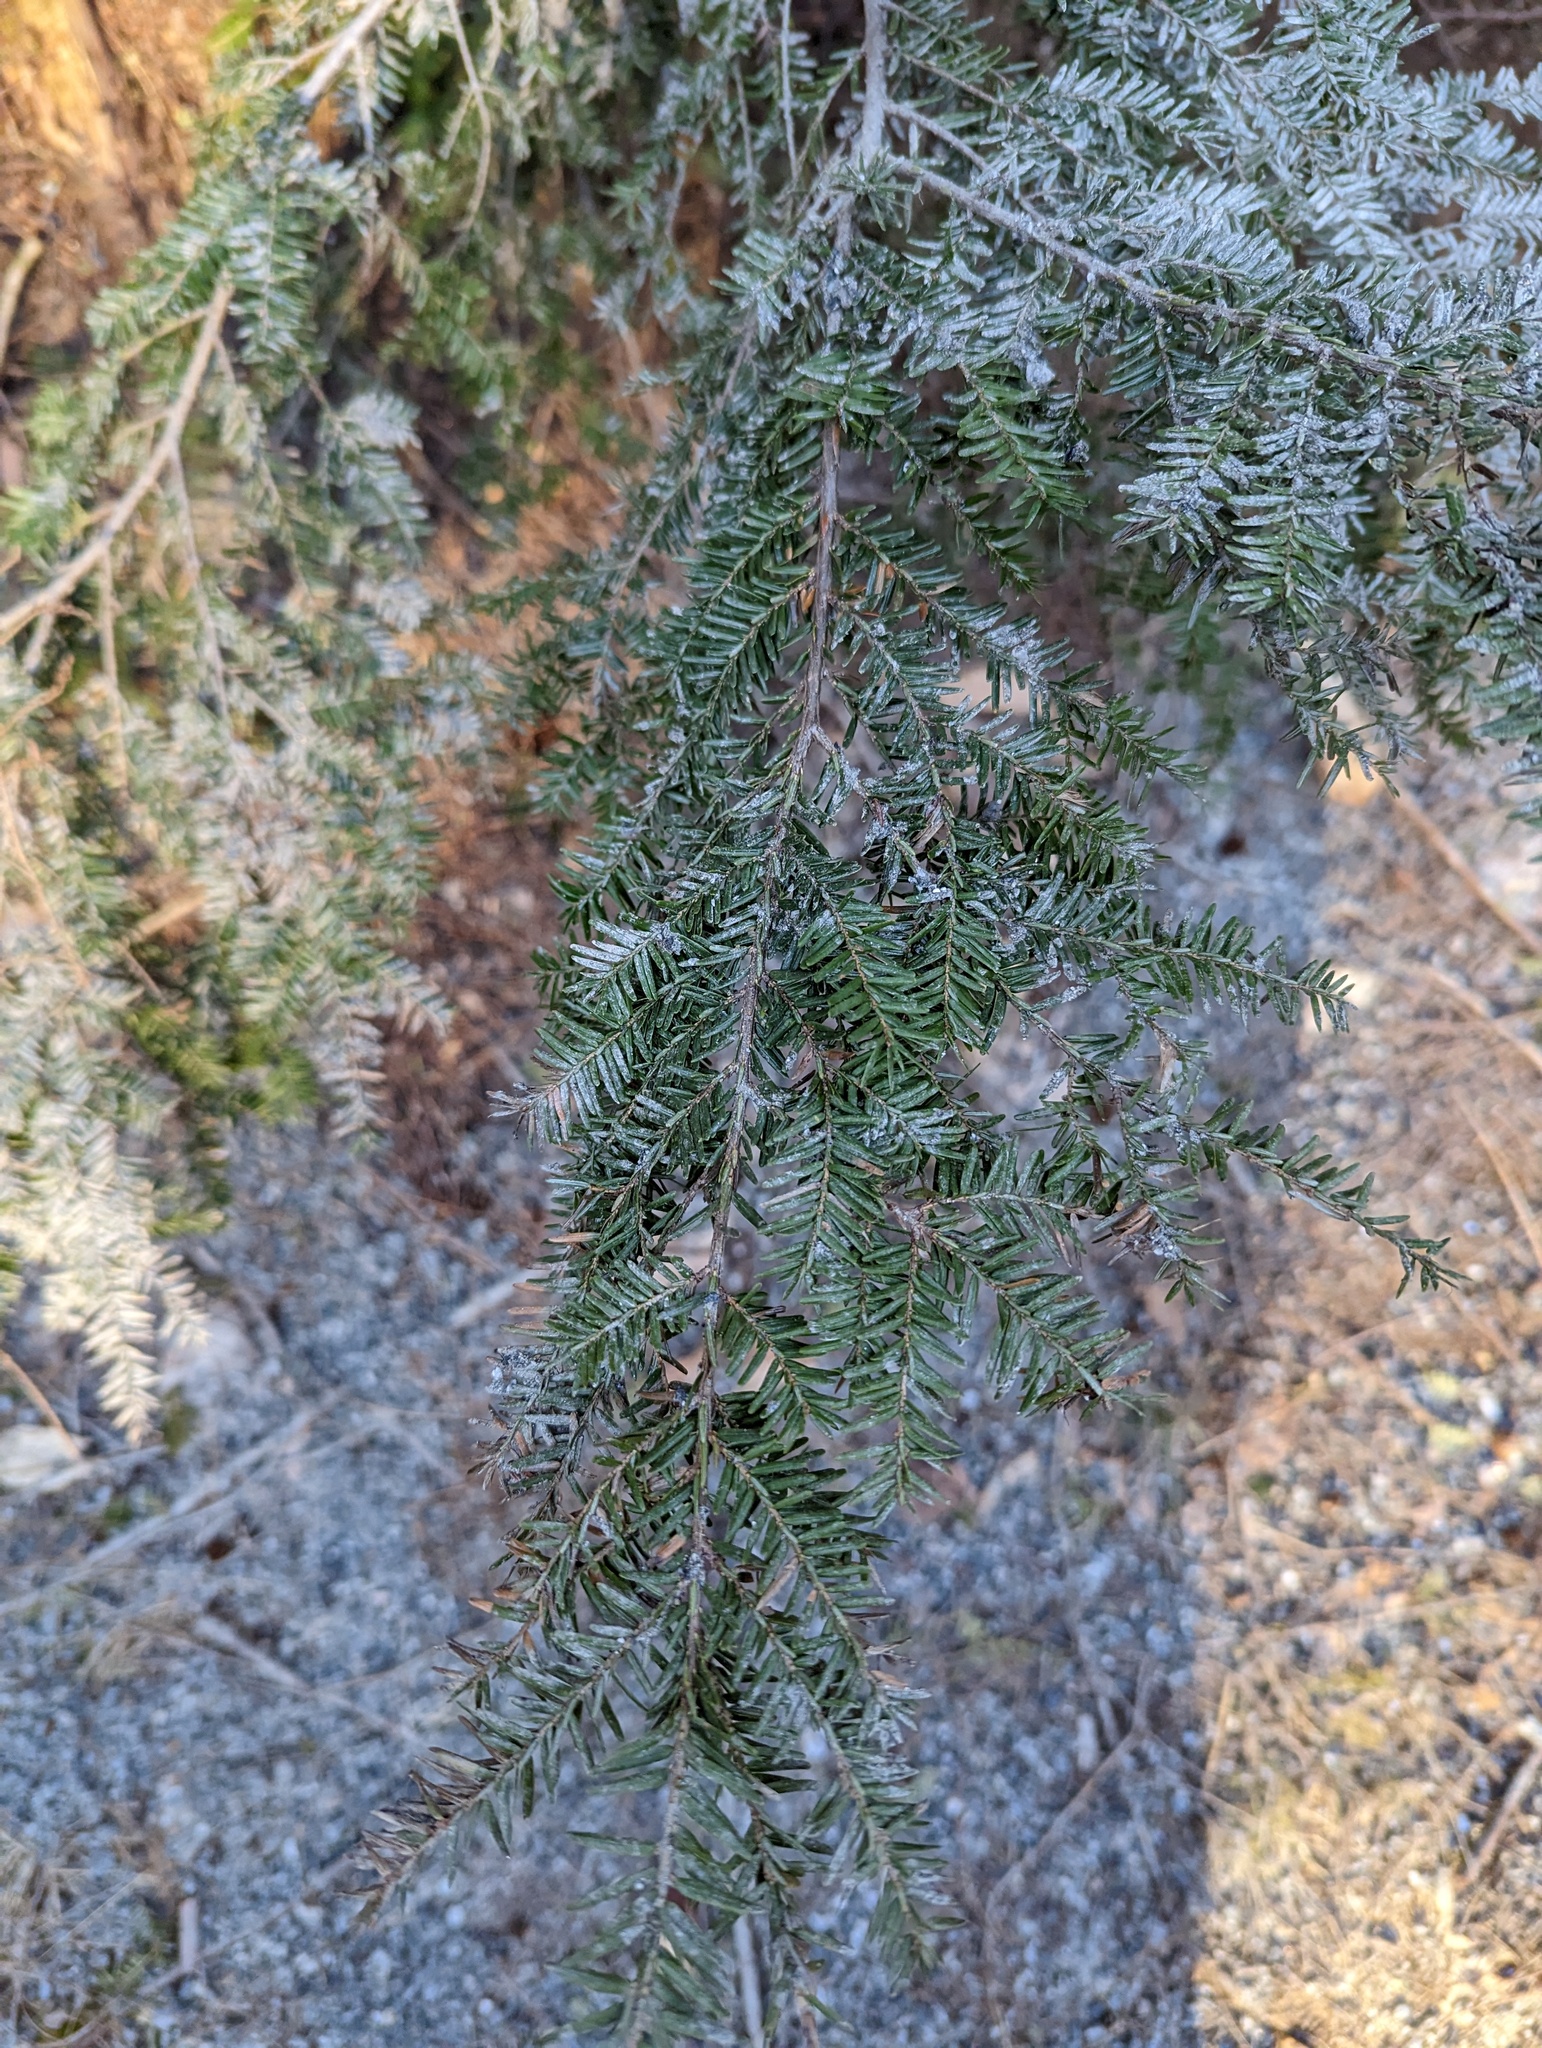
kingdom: Plantae
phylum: Tracheophyta
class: Pinopsida
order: Pinales
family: Pinaceae
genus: Tsuga
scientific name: Tsuga canadensis
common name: Eastern hemlock
